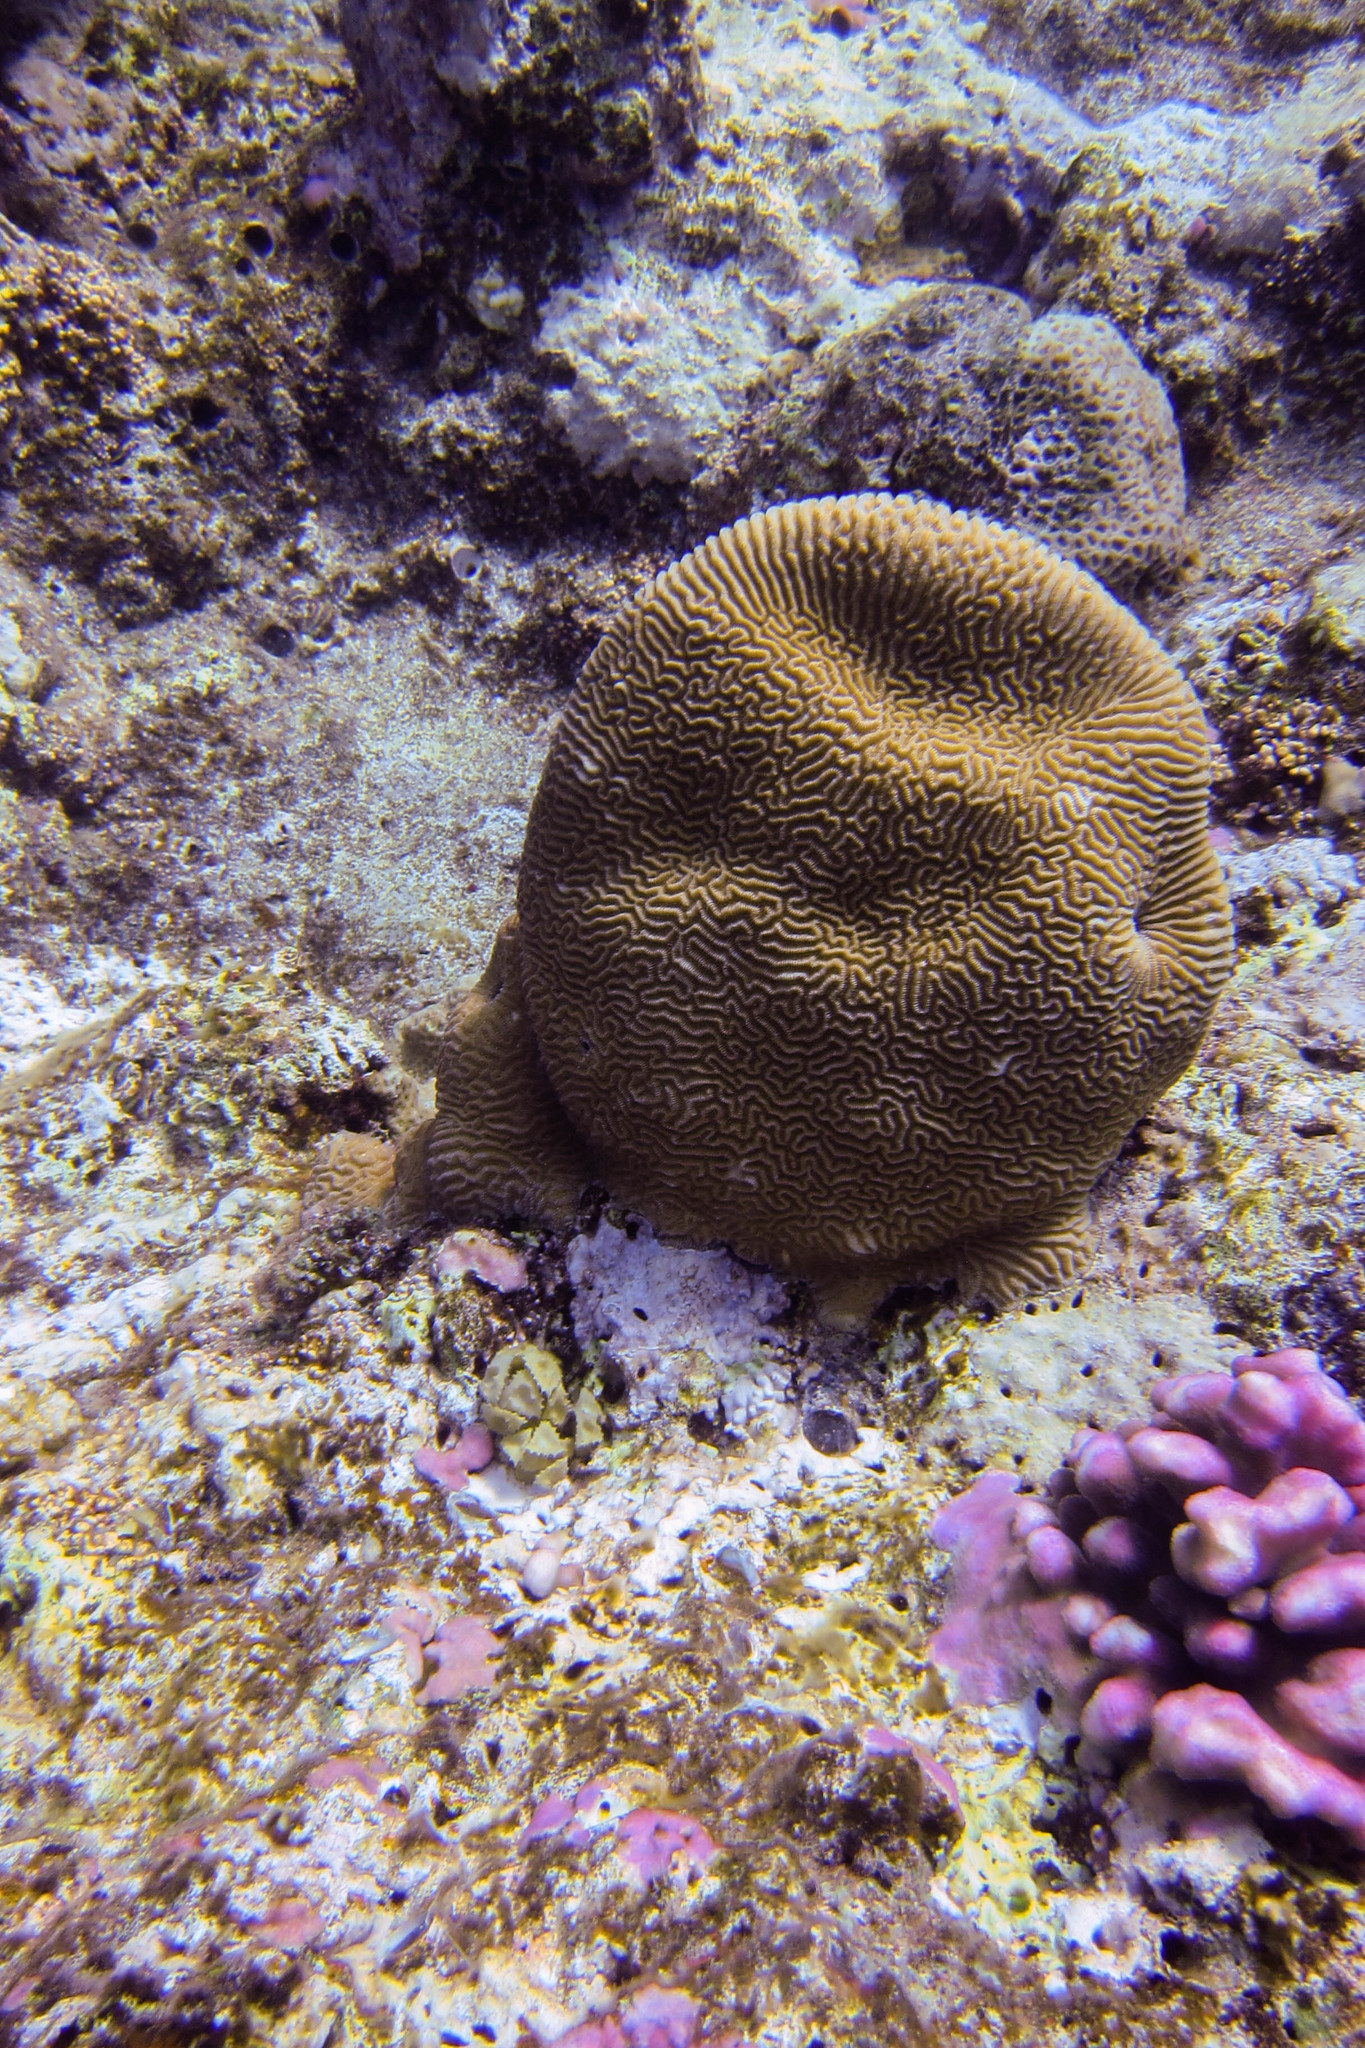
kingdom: Animalia
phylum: Cnidaria
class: Anthozoa
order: Scleractinia
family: Merulinidae
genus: Platygyra
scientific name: Platygyra
